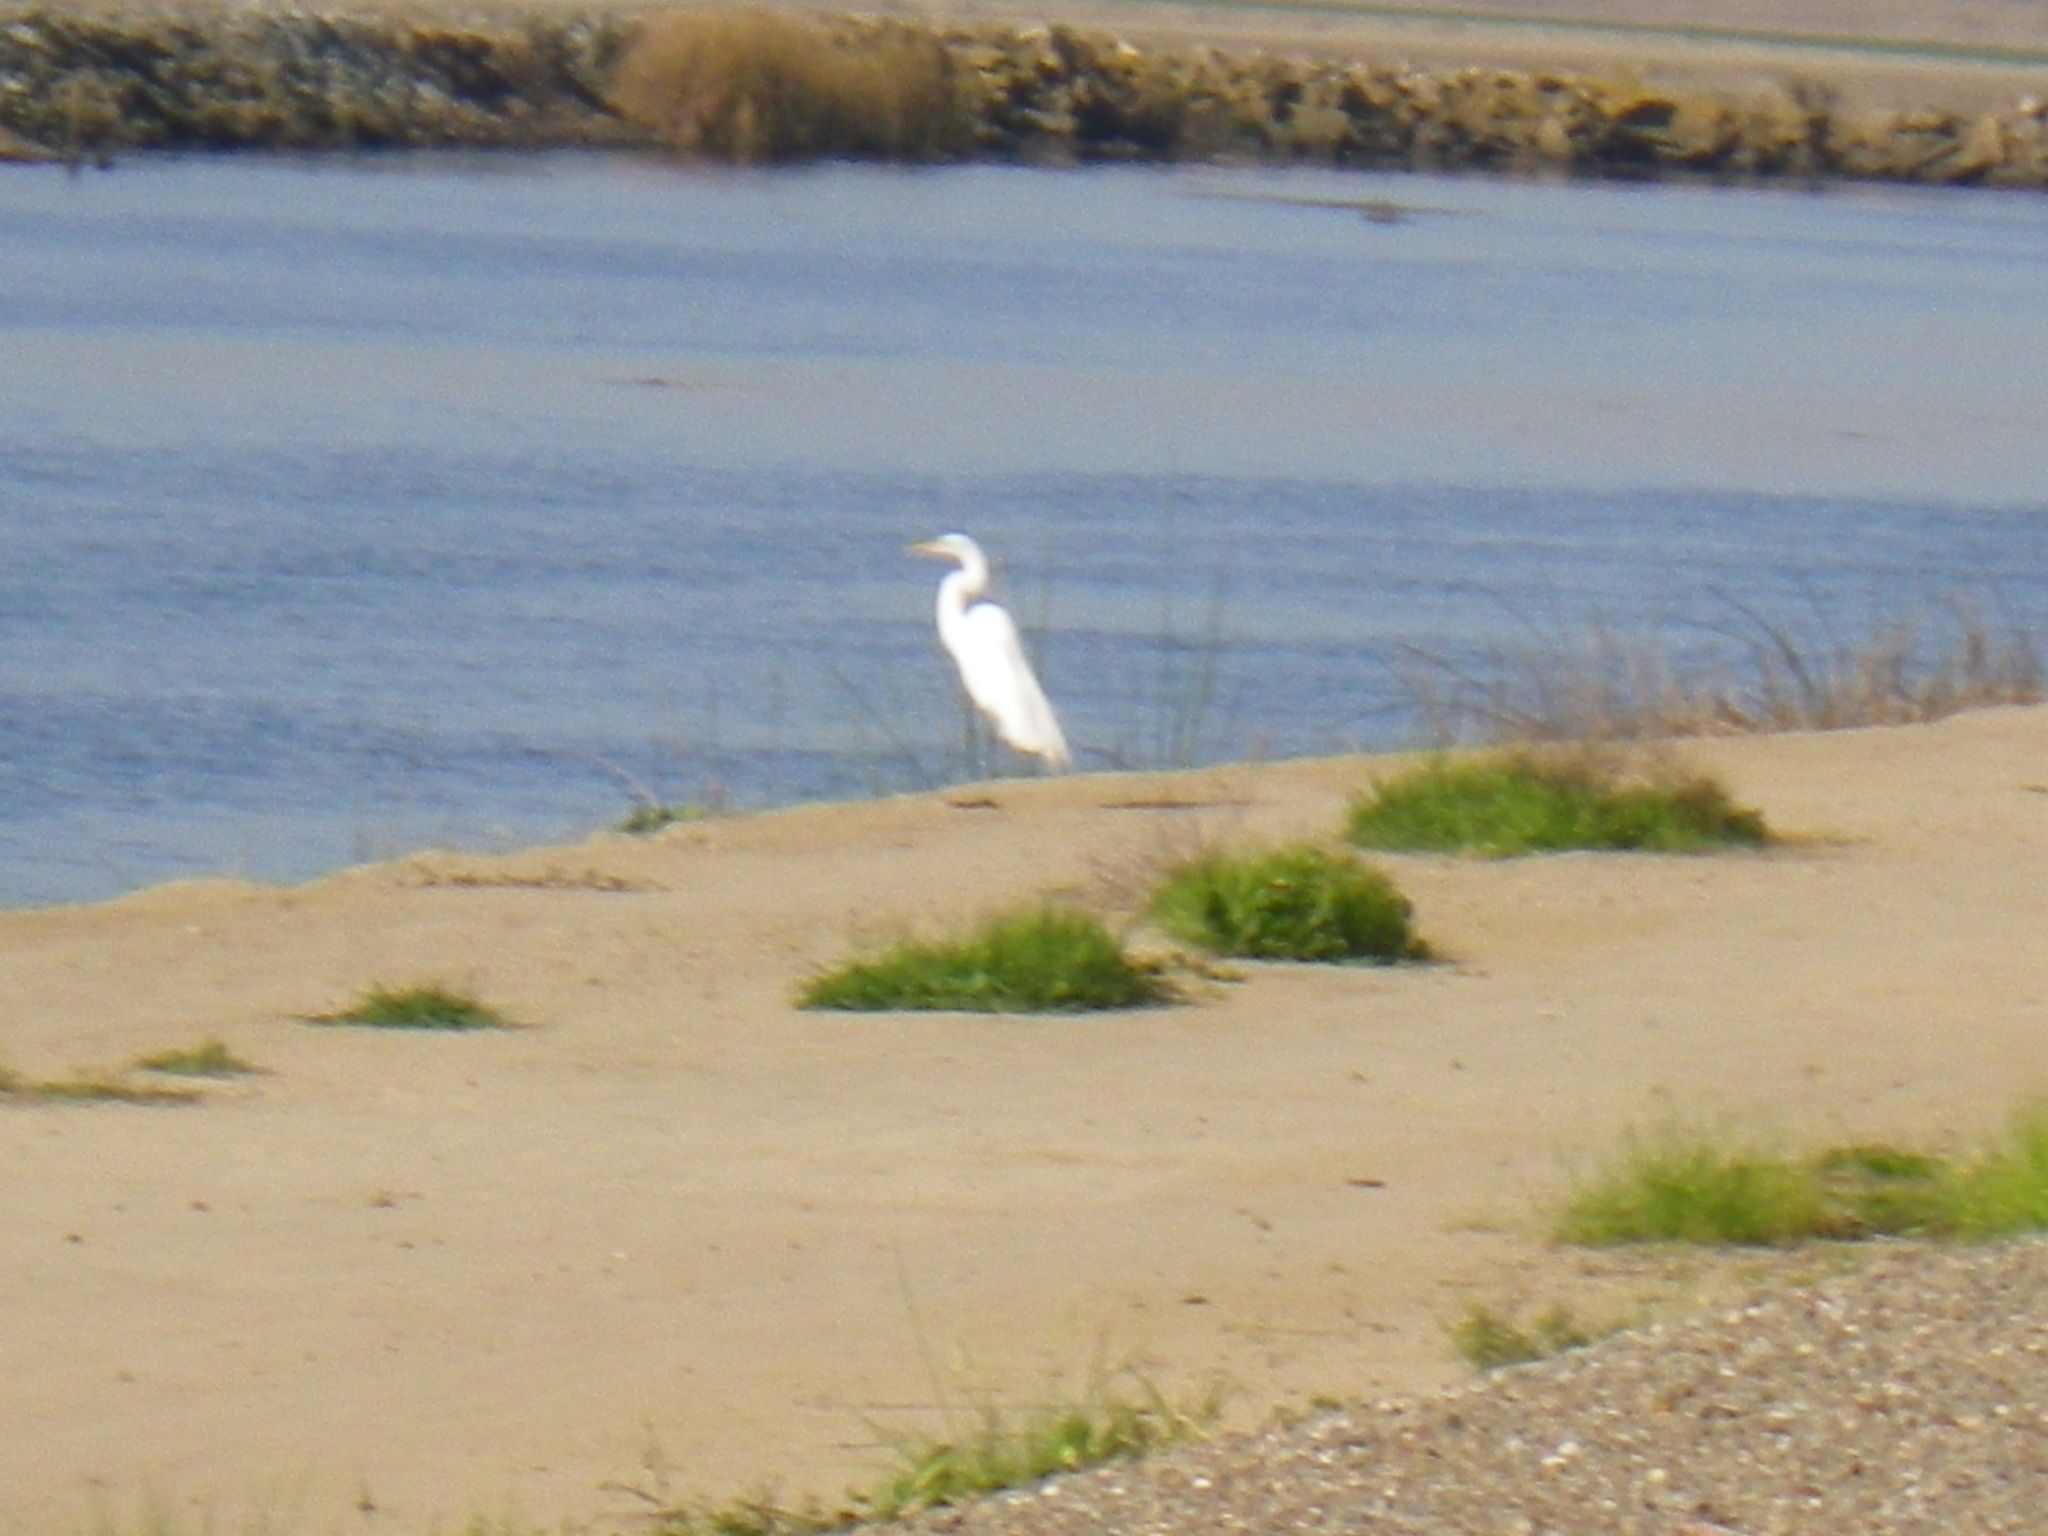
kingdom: Animalia
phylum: Chordata
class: Aves
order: Pelecaniformes
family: Ardeidae
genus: Ardea
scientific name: Ardea alba
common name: Great egret
